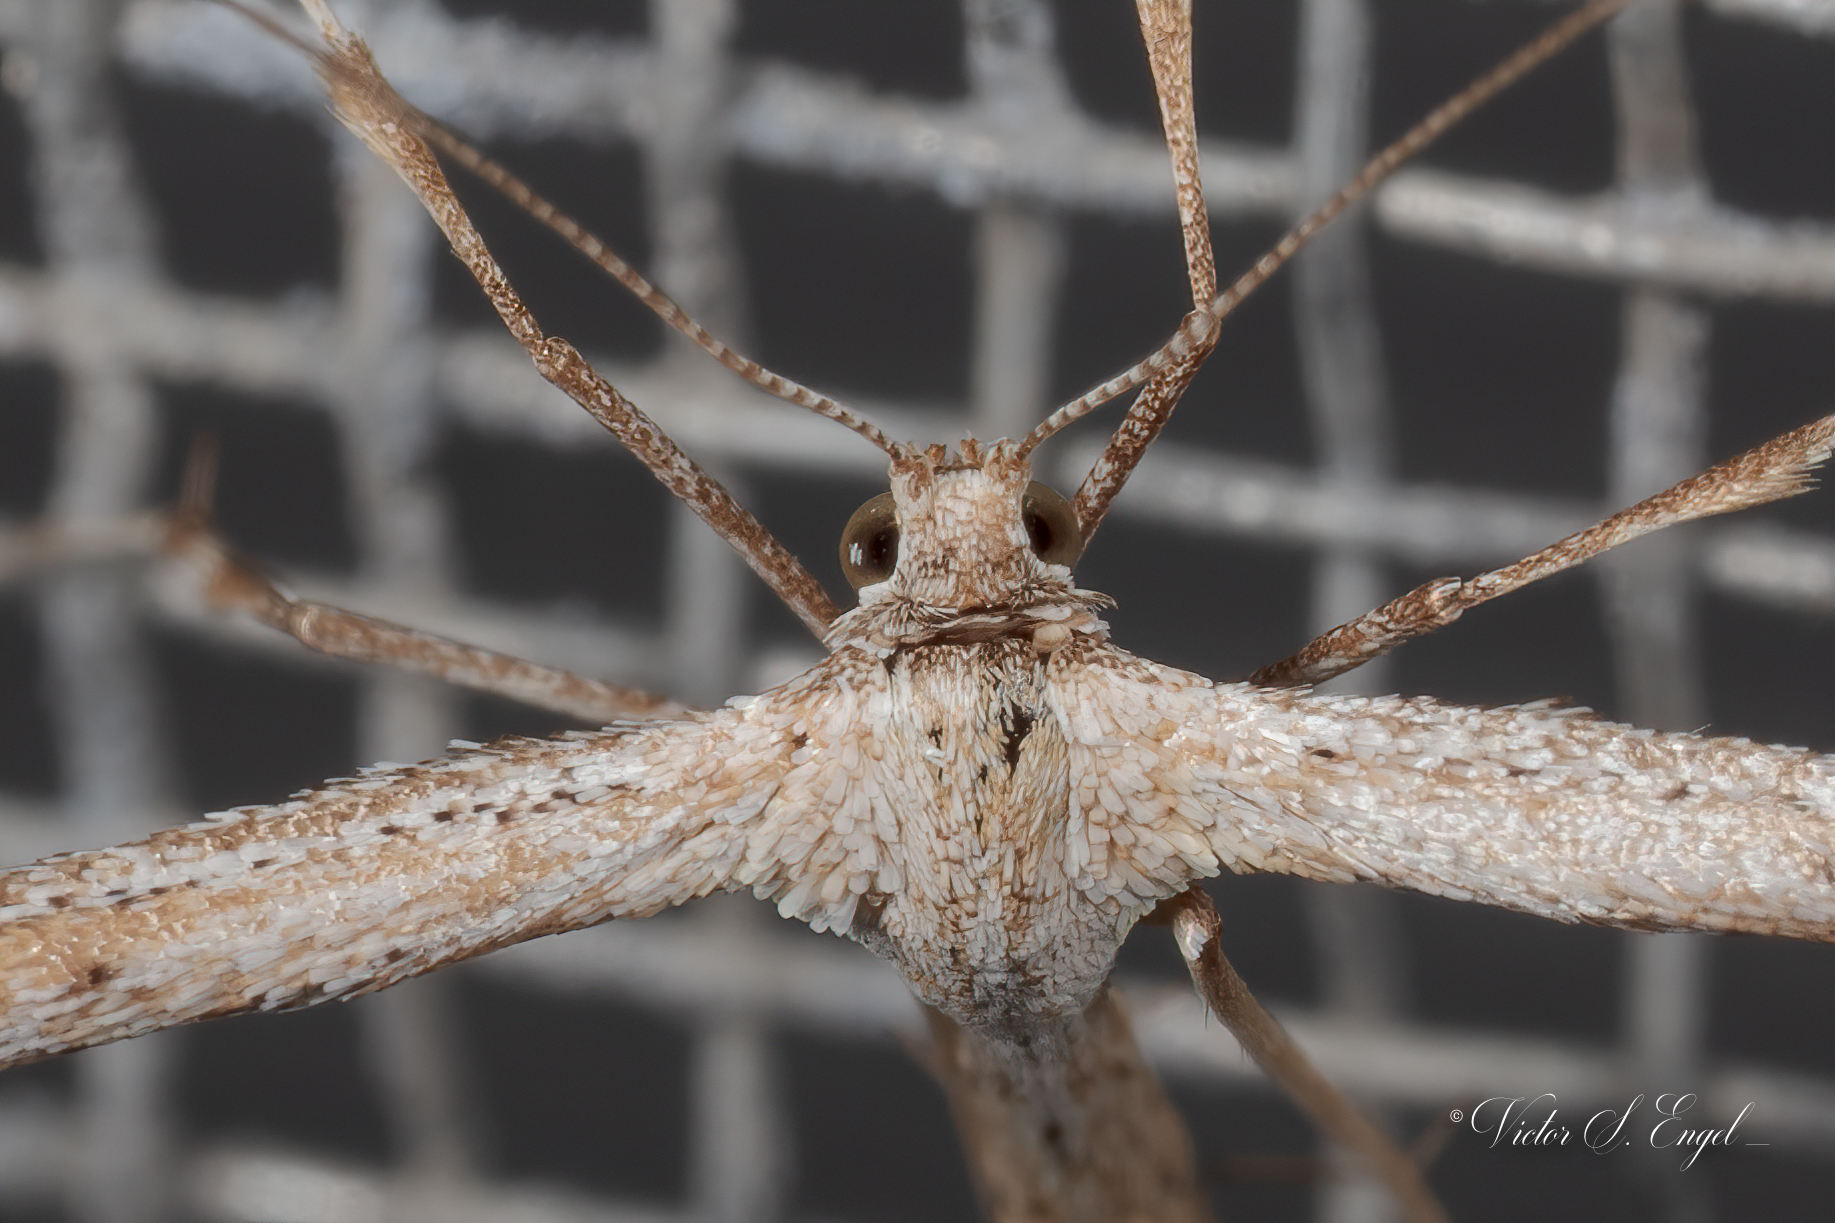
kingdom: Animalia
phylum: Arthropoda
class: Insecta
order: Lepidoptera
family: Pterophoridae
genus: Emmelina
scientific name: Emmelina monodactyla
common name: Common plume
